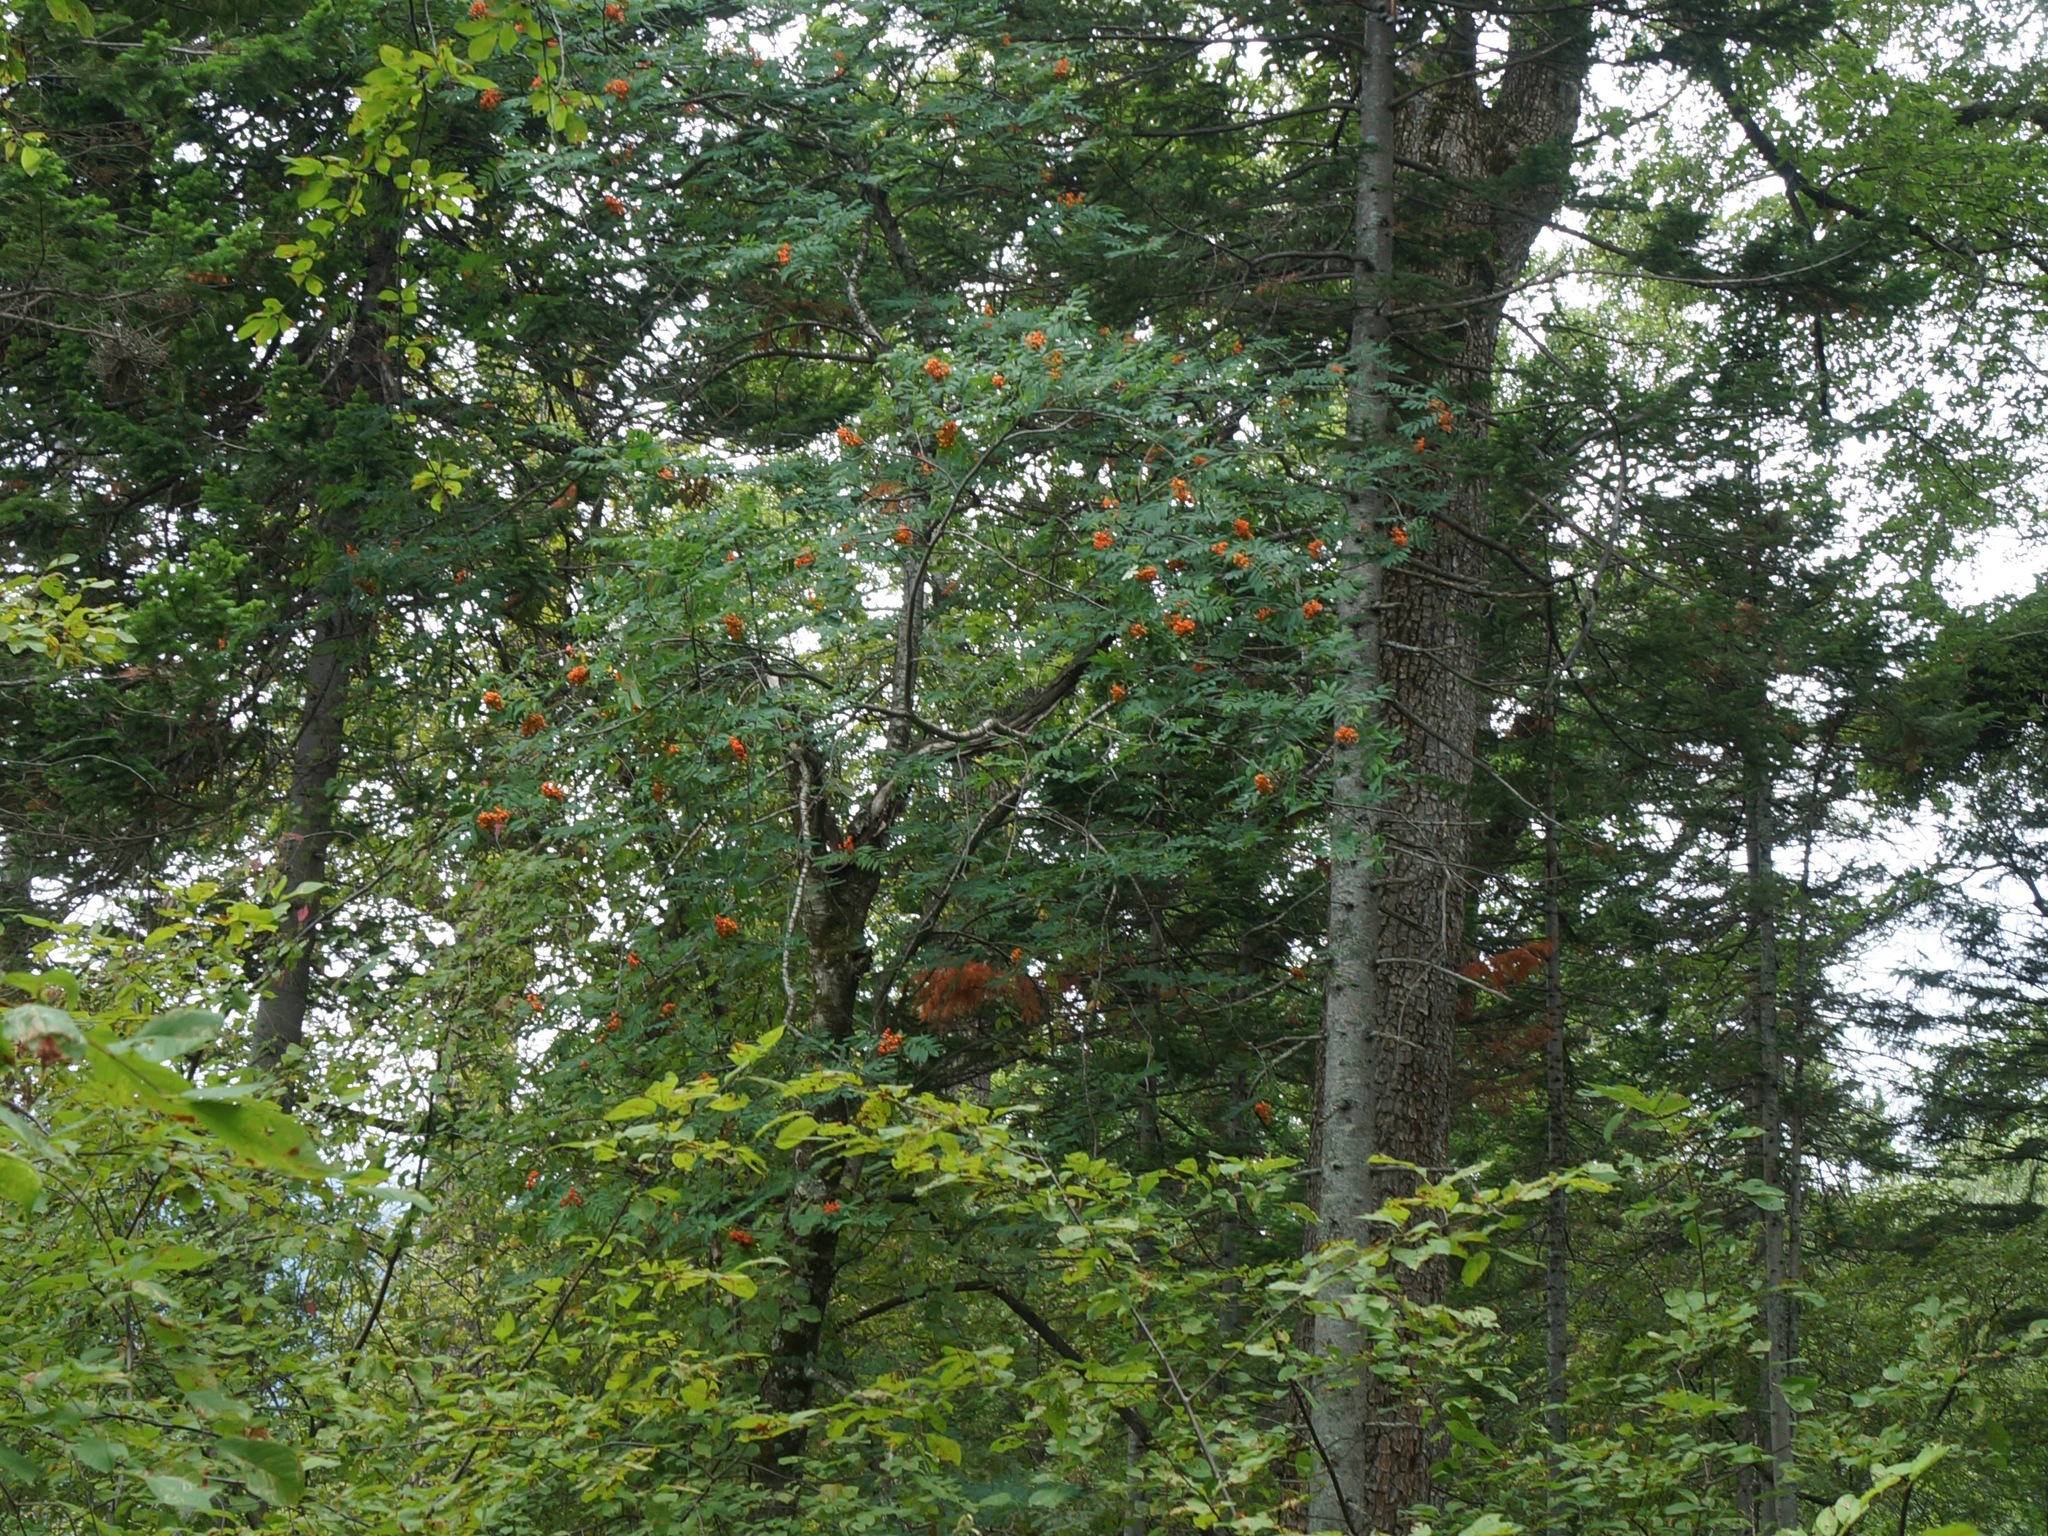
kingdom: Plantae
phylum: Tracheophyta
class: Magnoliopsida
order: Rosales
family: Rosaceae
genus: Sorbus
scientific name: Sorbus aucuparia
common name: Rowan
